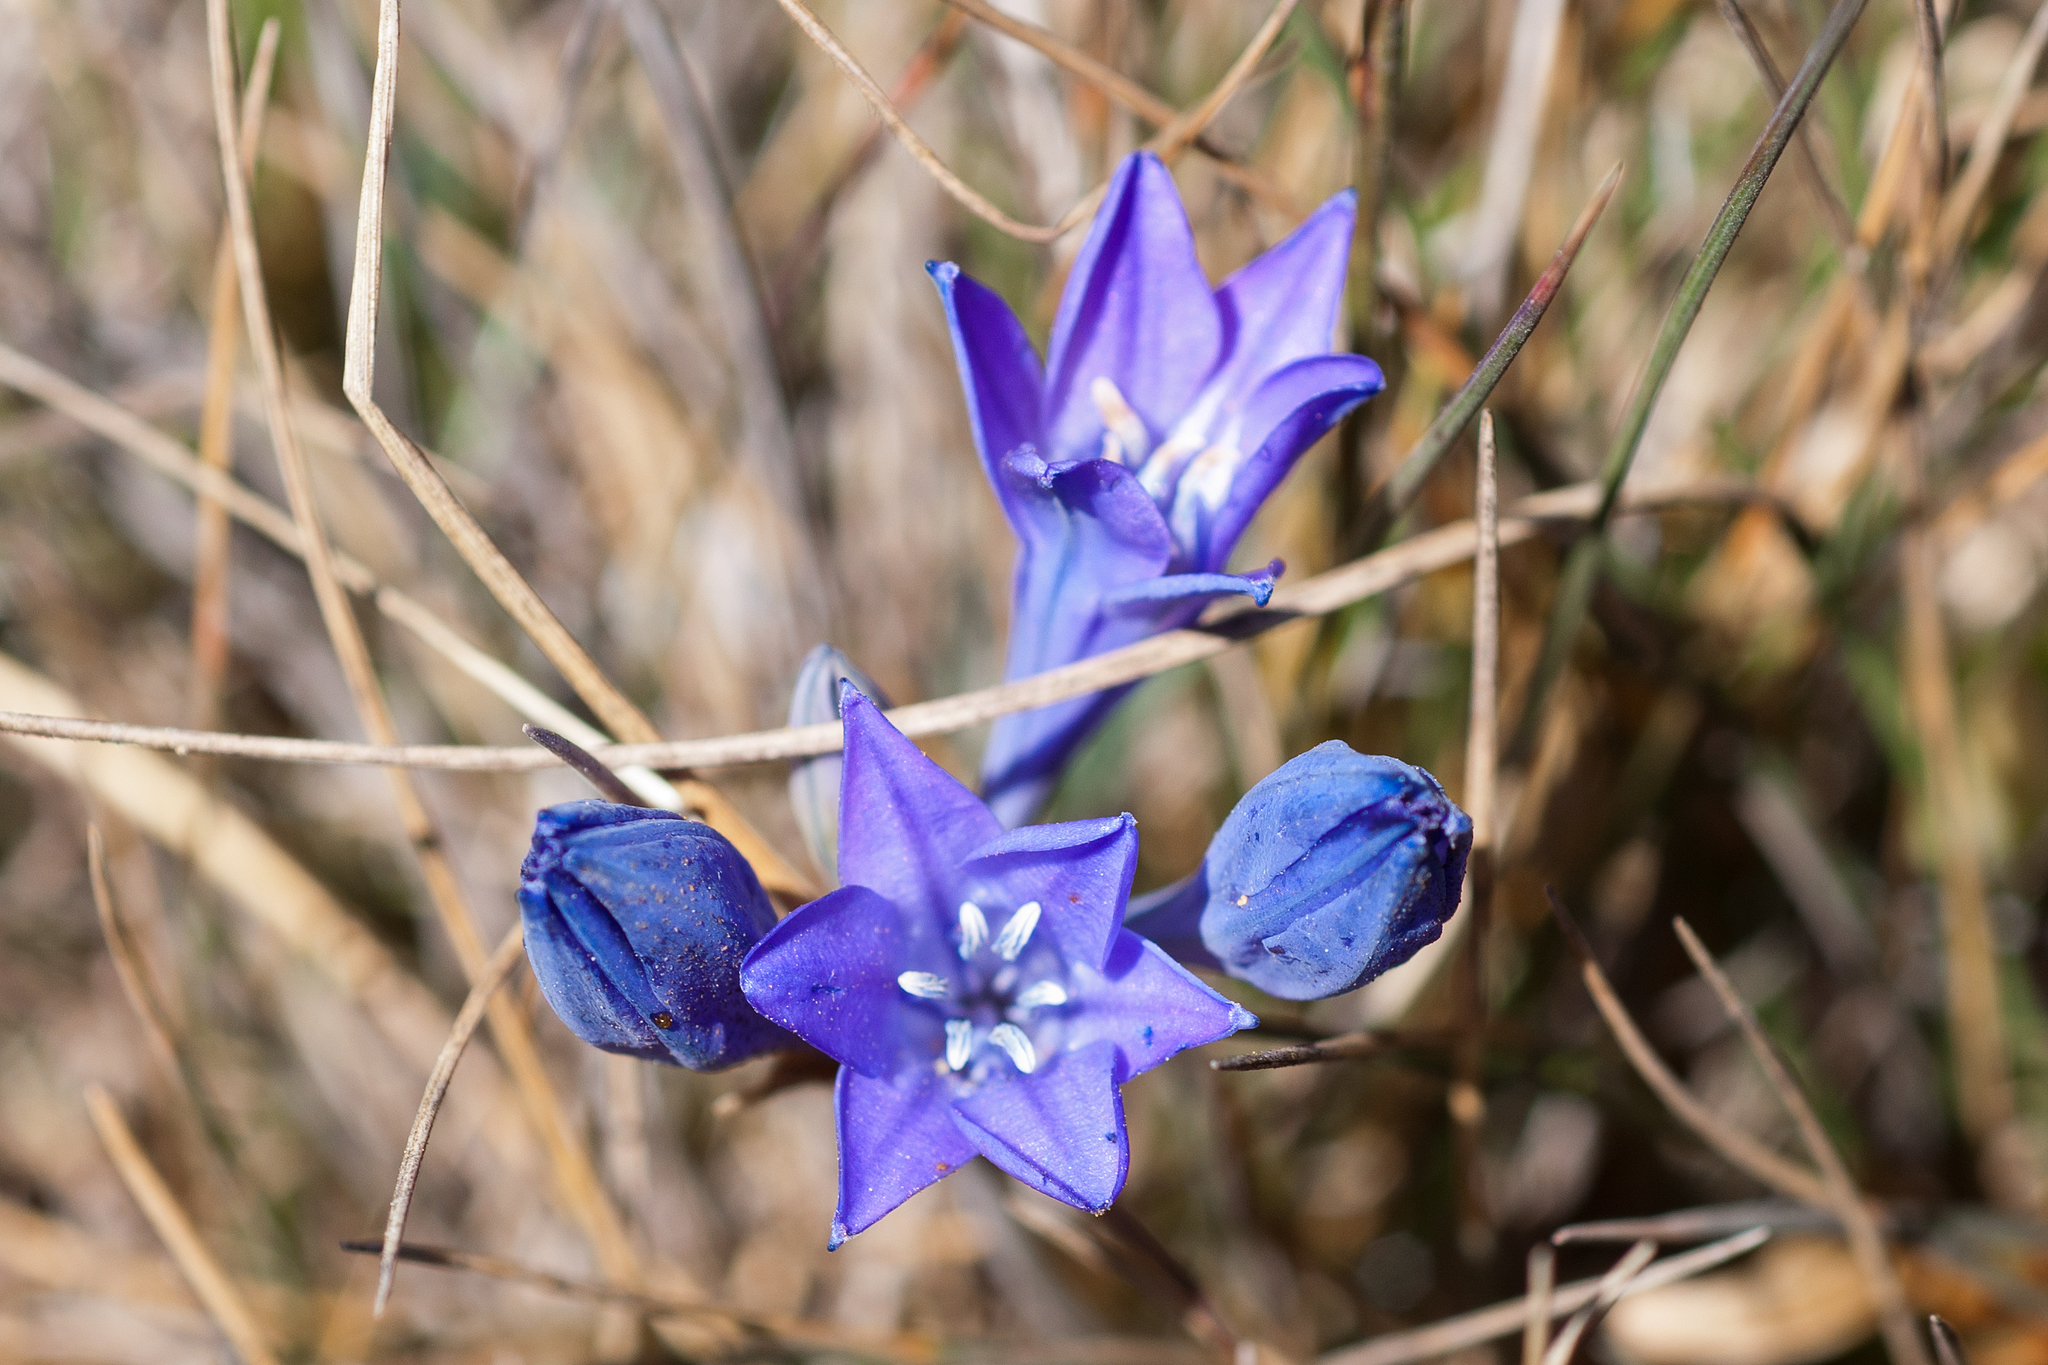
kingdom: Plantae
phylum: Tracheophyta
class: Liliopsida
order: Asparagales
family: Asparagaceae
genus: Triteleia
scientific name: Triteleia laxa
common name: Triplet-lily
